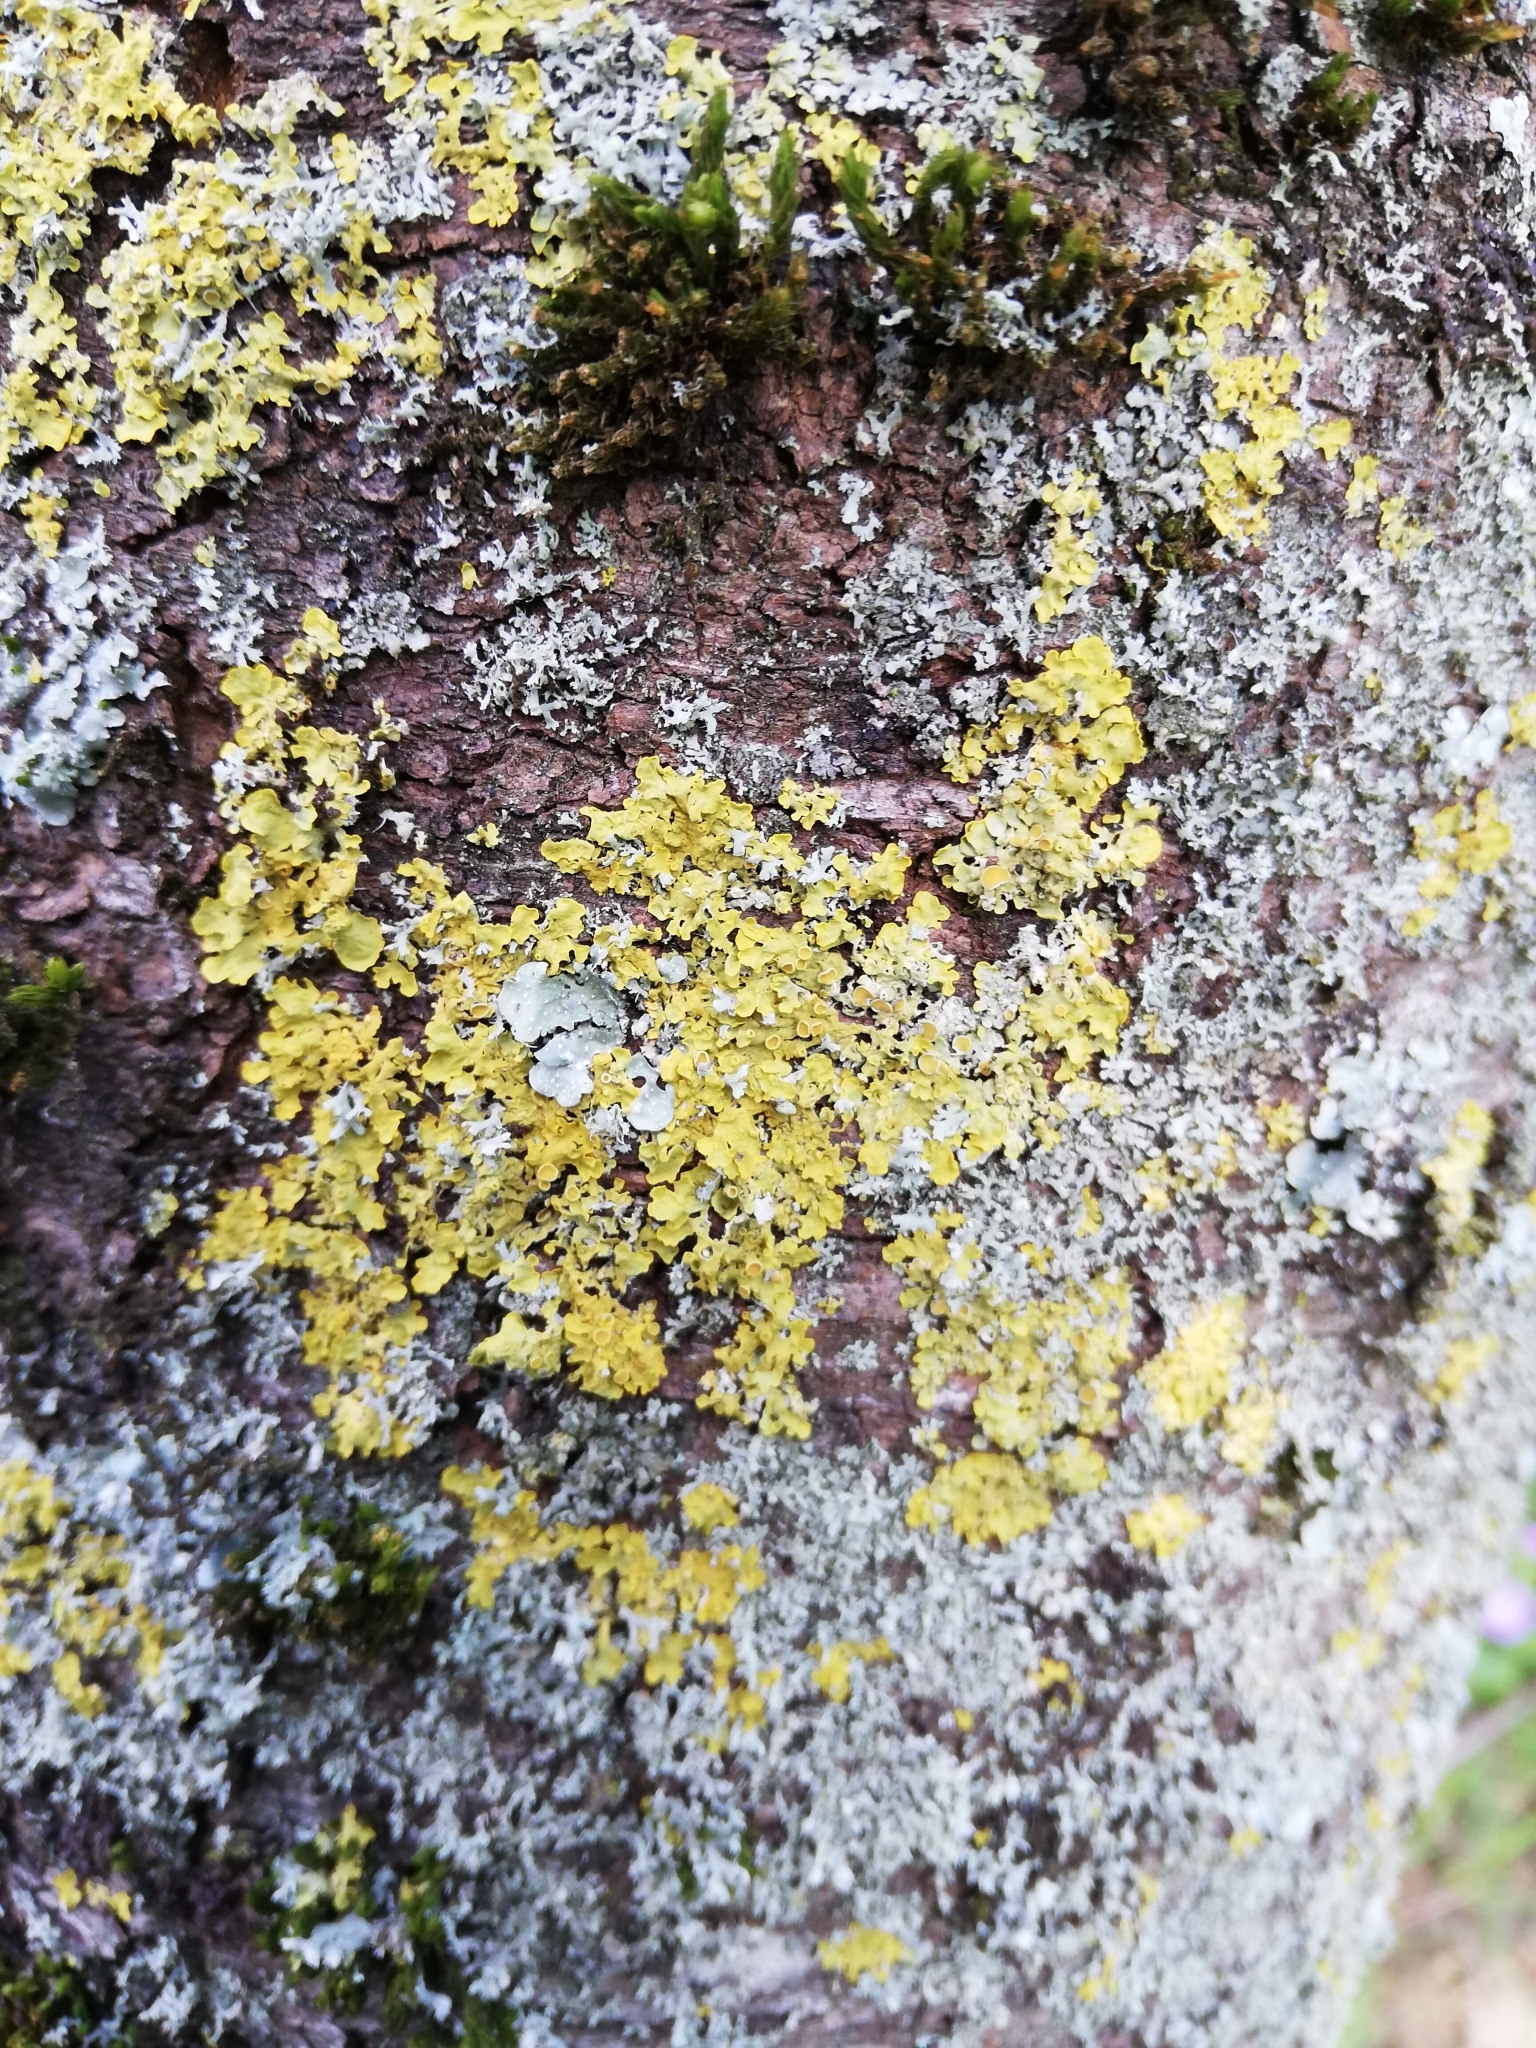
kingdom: Fungi
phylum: Ascomycota
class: Lecanoromycetes
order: Teloschistales
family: Teloschistaceae
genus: Xanthoria
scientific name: Xanthoria parietina
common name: Common orange lichen
